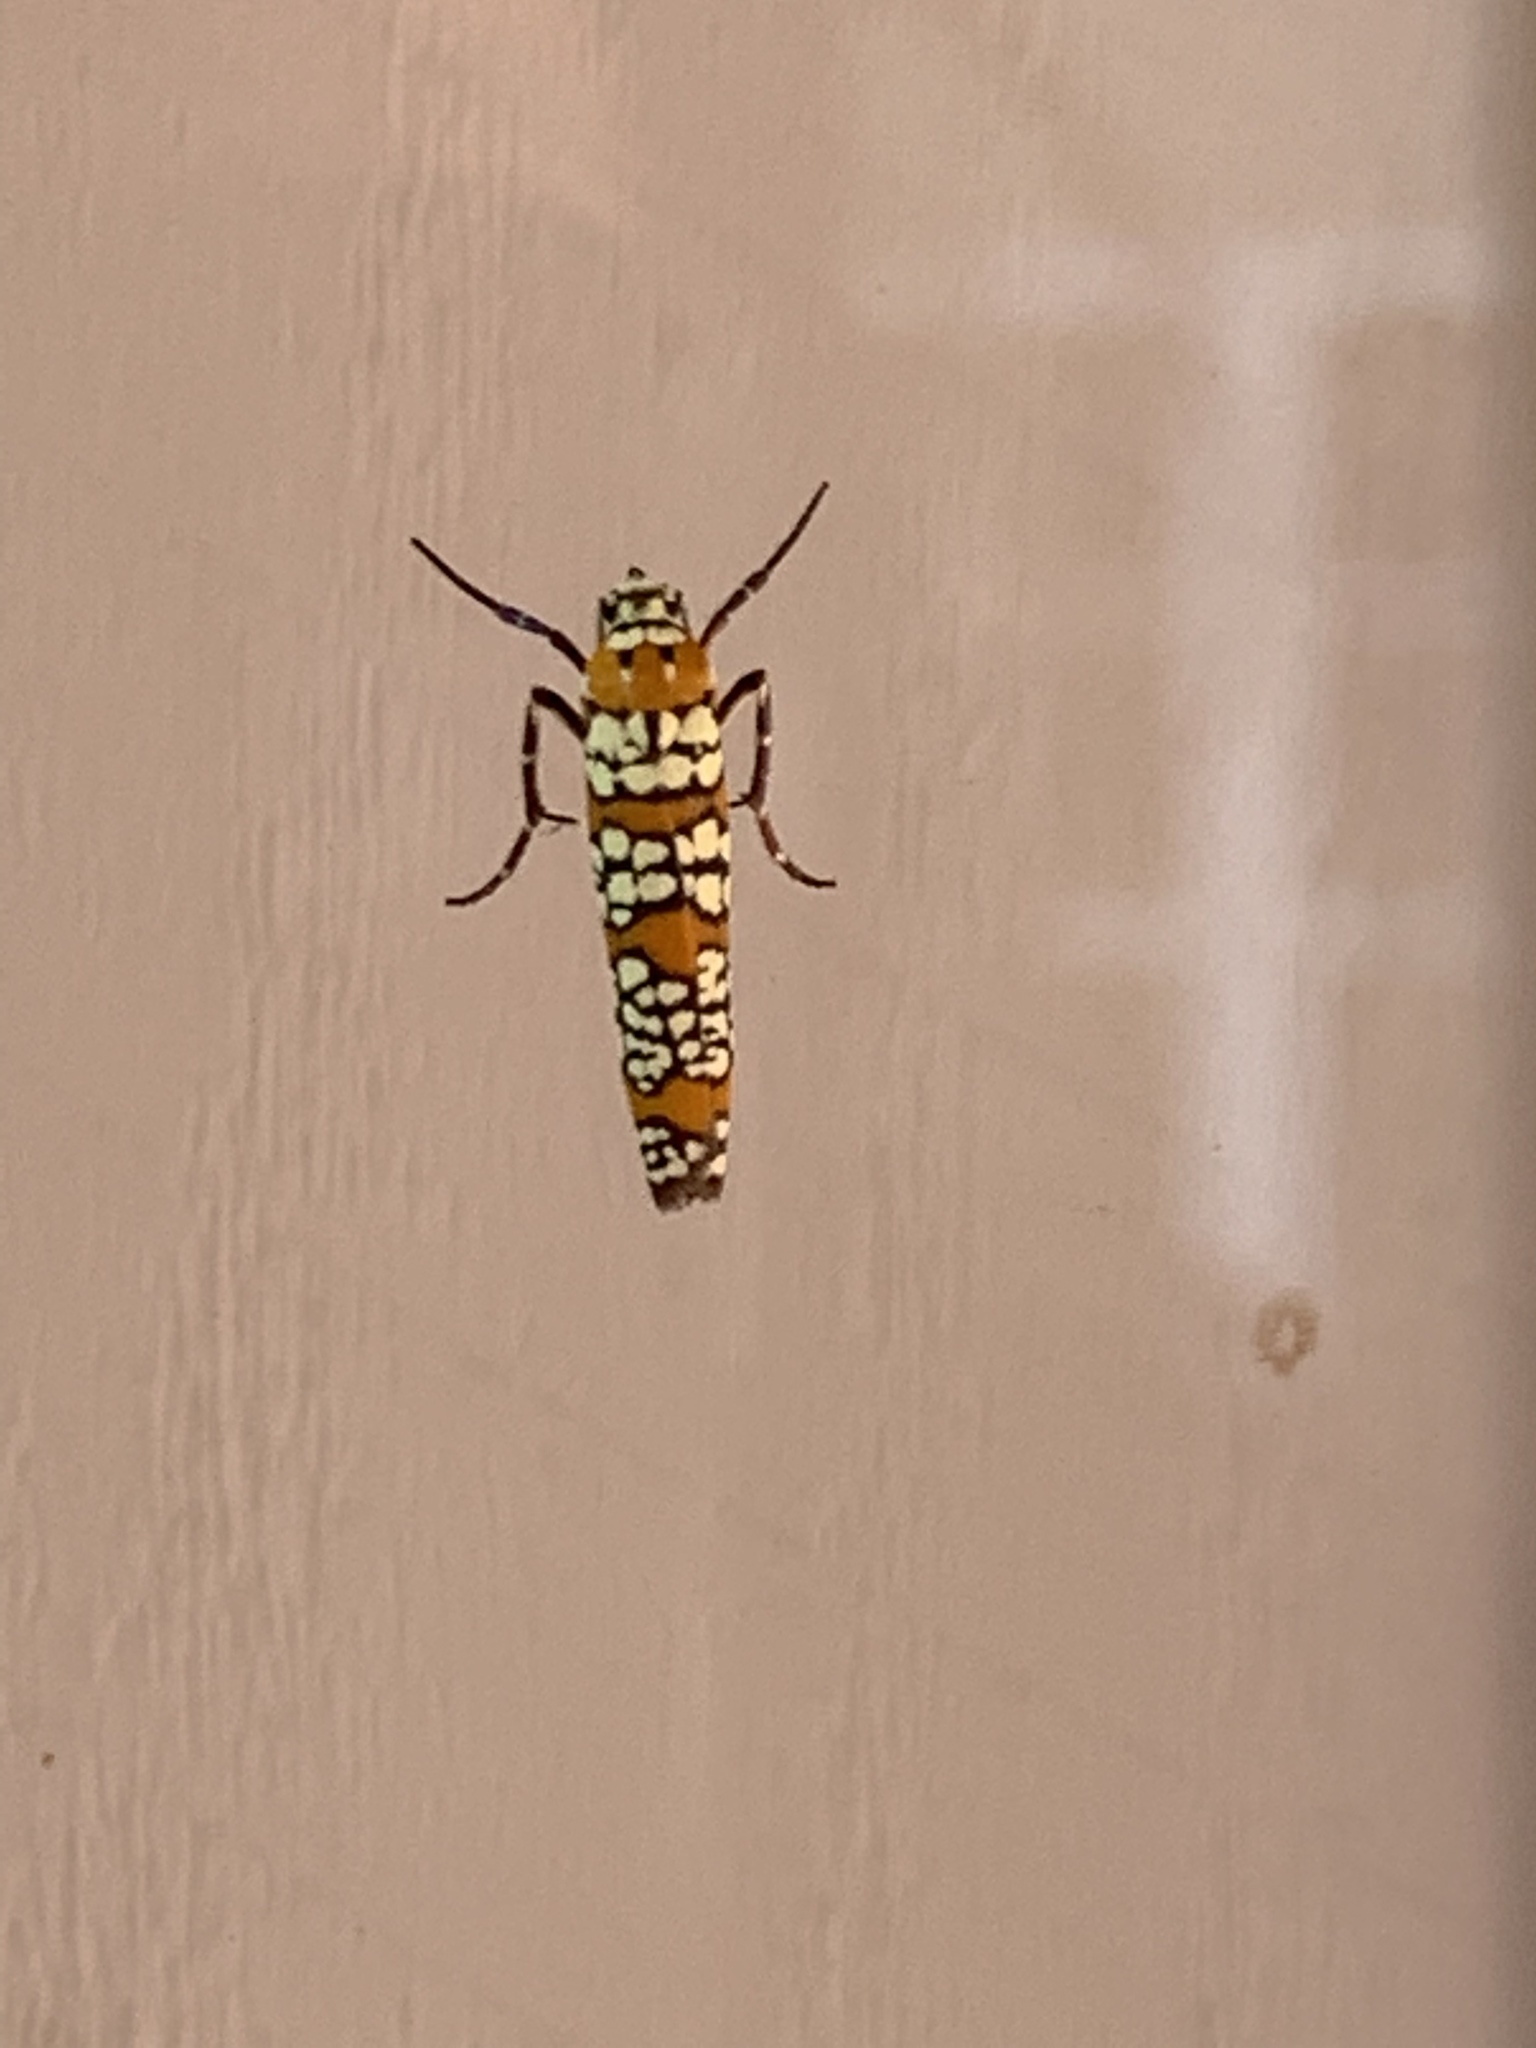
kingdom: Animalia
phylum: Arthropoda
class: Insecta
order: Lepidoptera
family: Attevidae
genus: Atteva
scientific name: Atteva punctella
